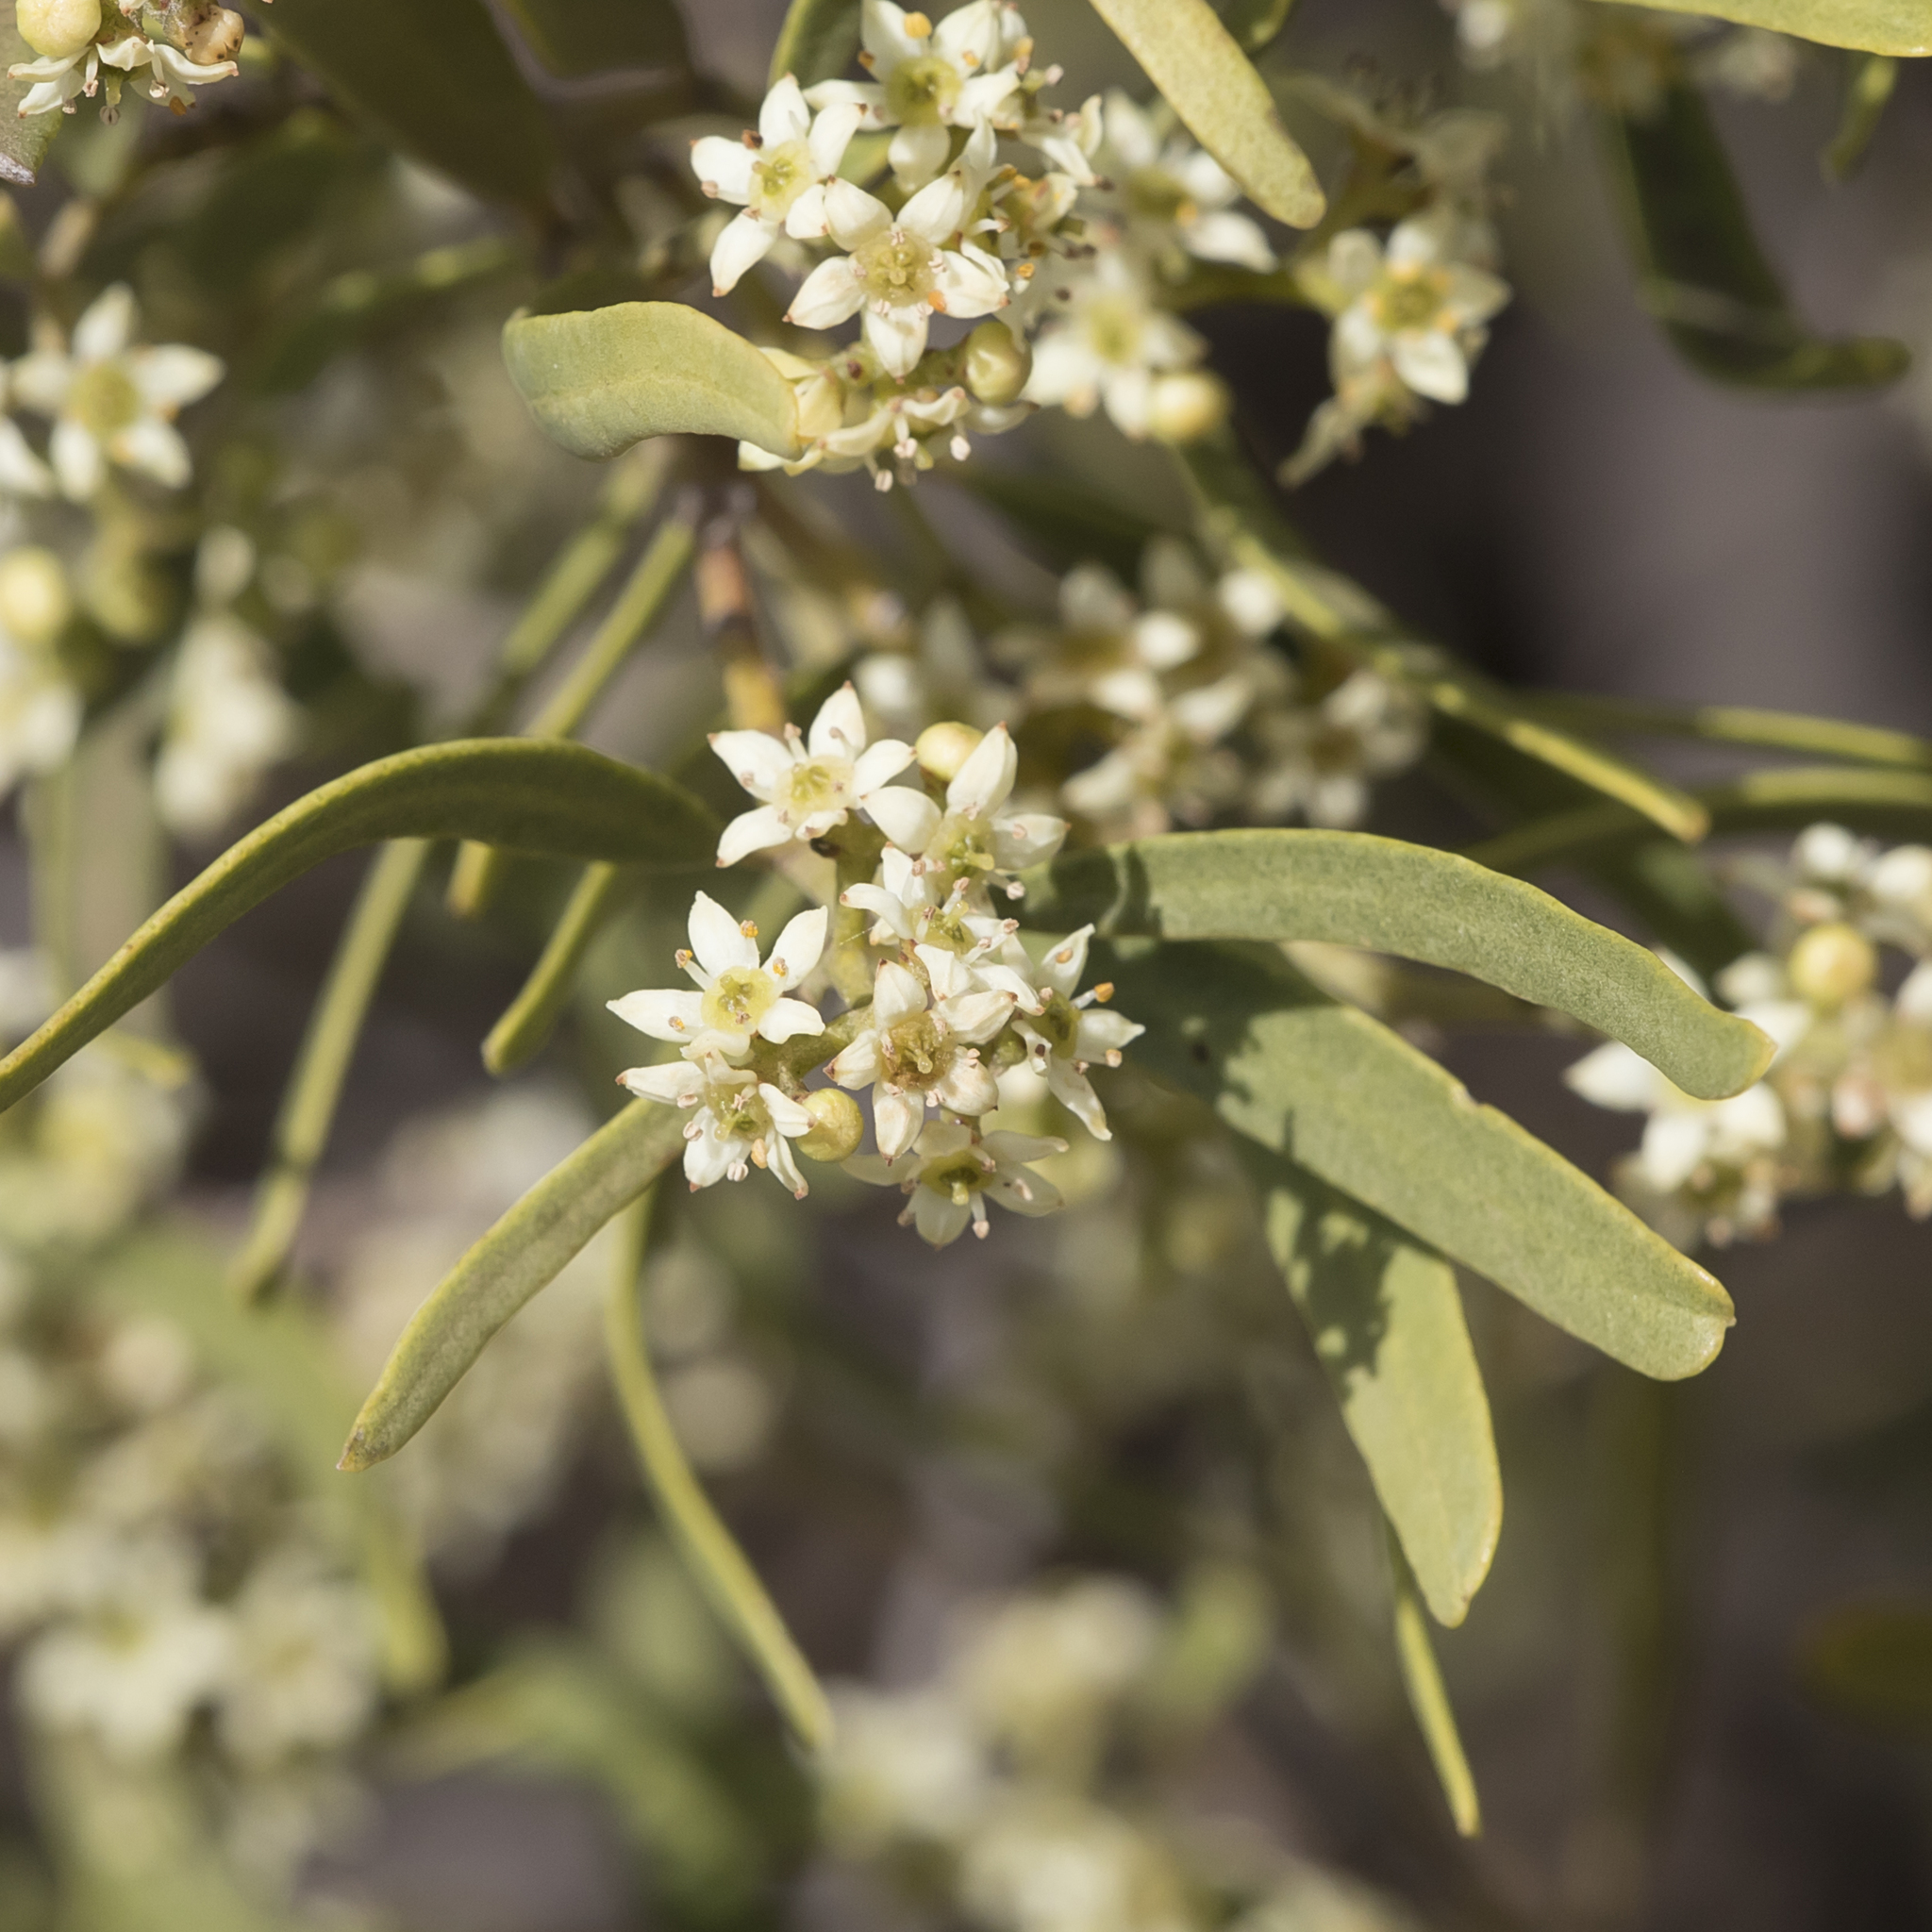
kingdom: Plantae
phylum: Tracheophyta
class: Magnoliopsida
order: Sapindales
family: Rutaceae
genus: Geijera
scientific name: Geijera linearifolia
